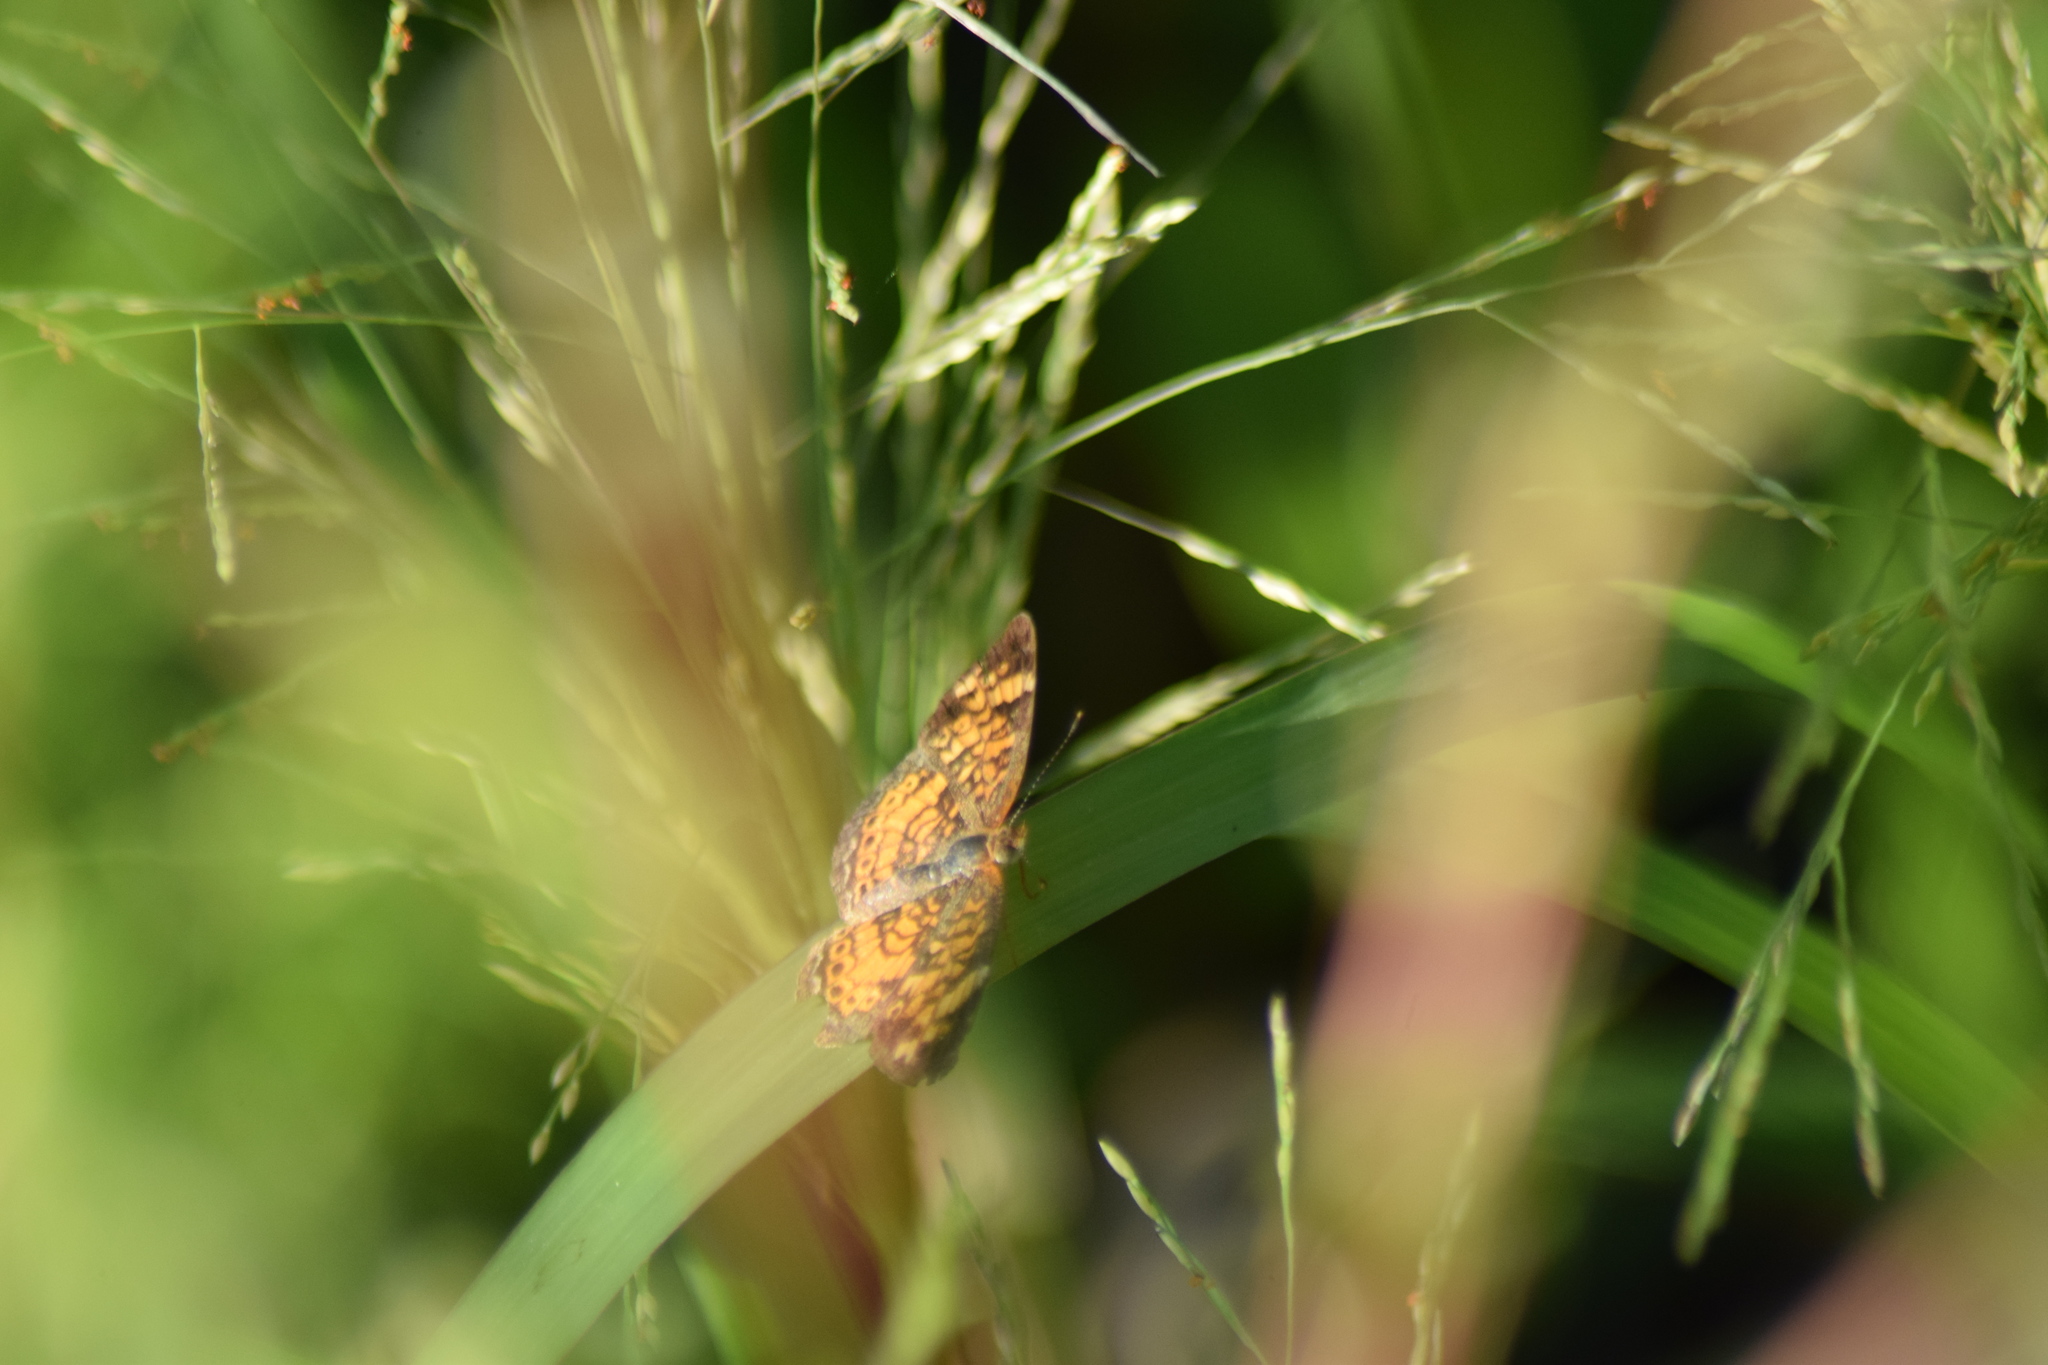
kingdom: Animalia
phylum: Arthropoda
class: Insecta
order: Lepidoptera
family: Nymphalidae
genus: Phyciodes
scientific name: Phyciodes tharos
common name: Pearl crescent
